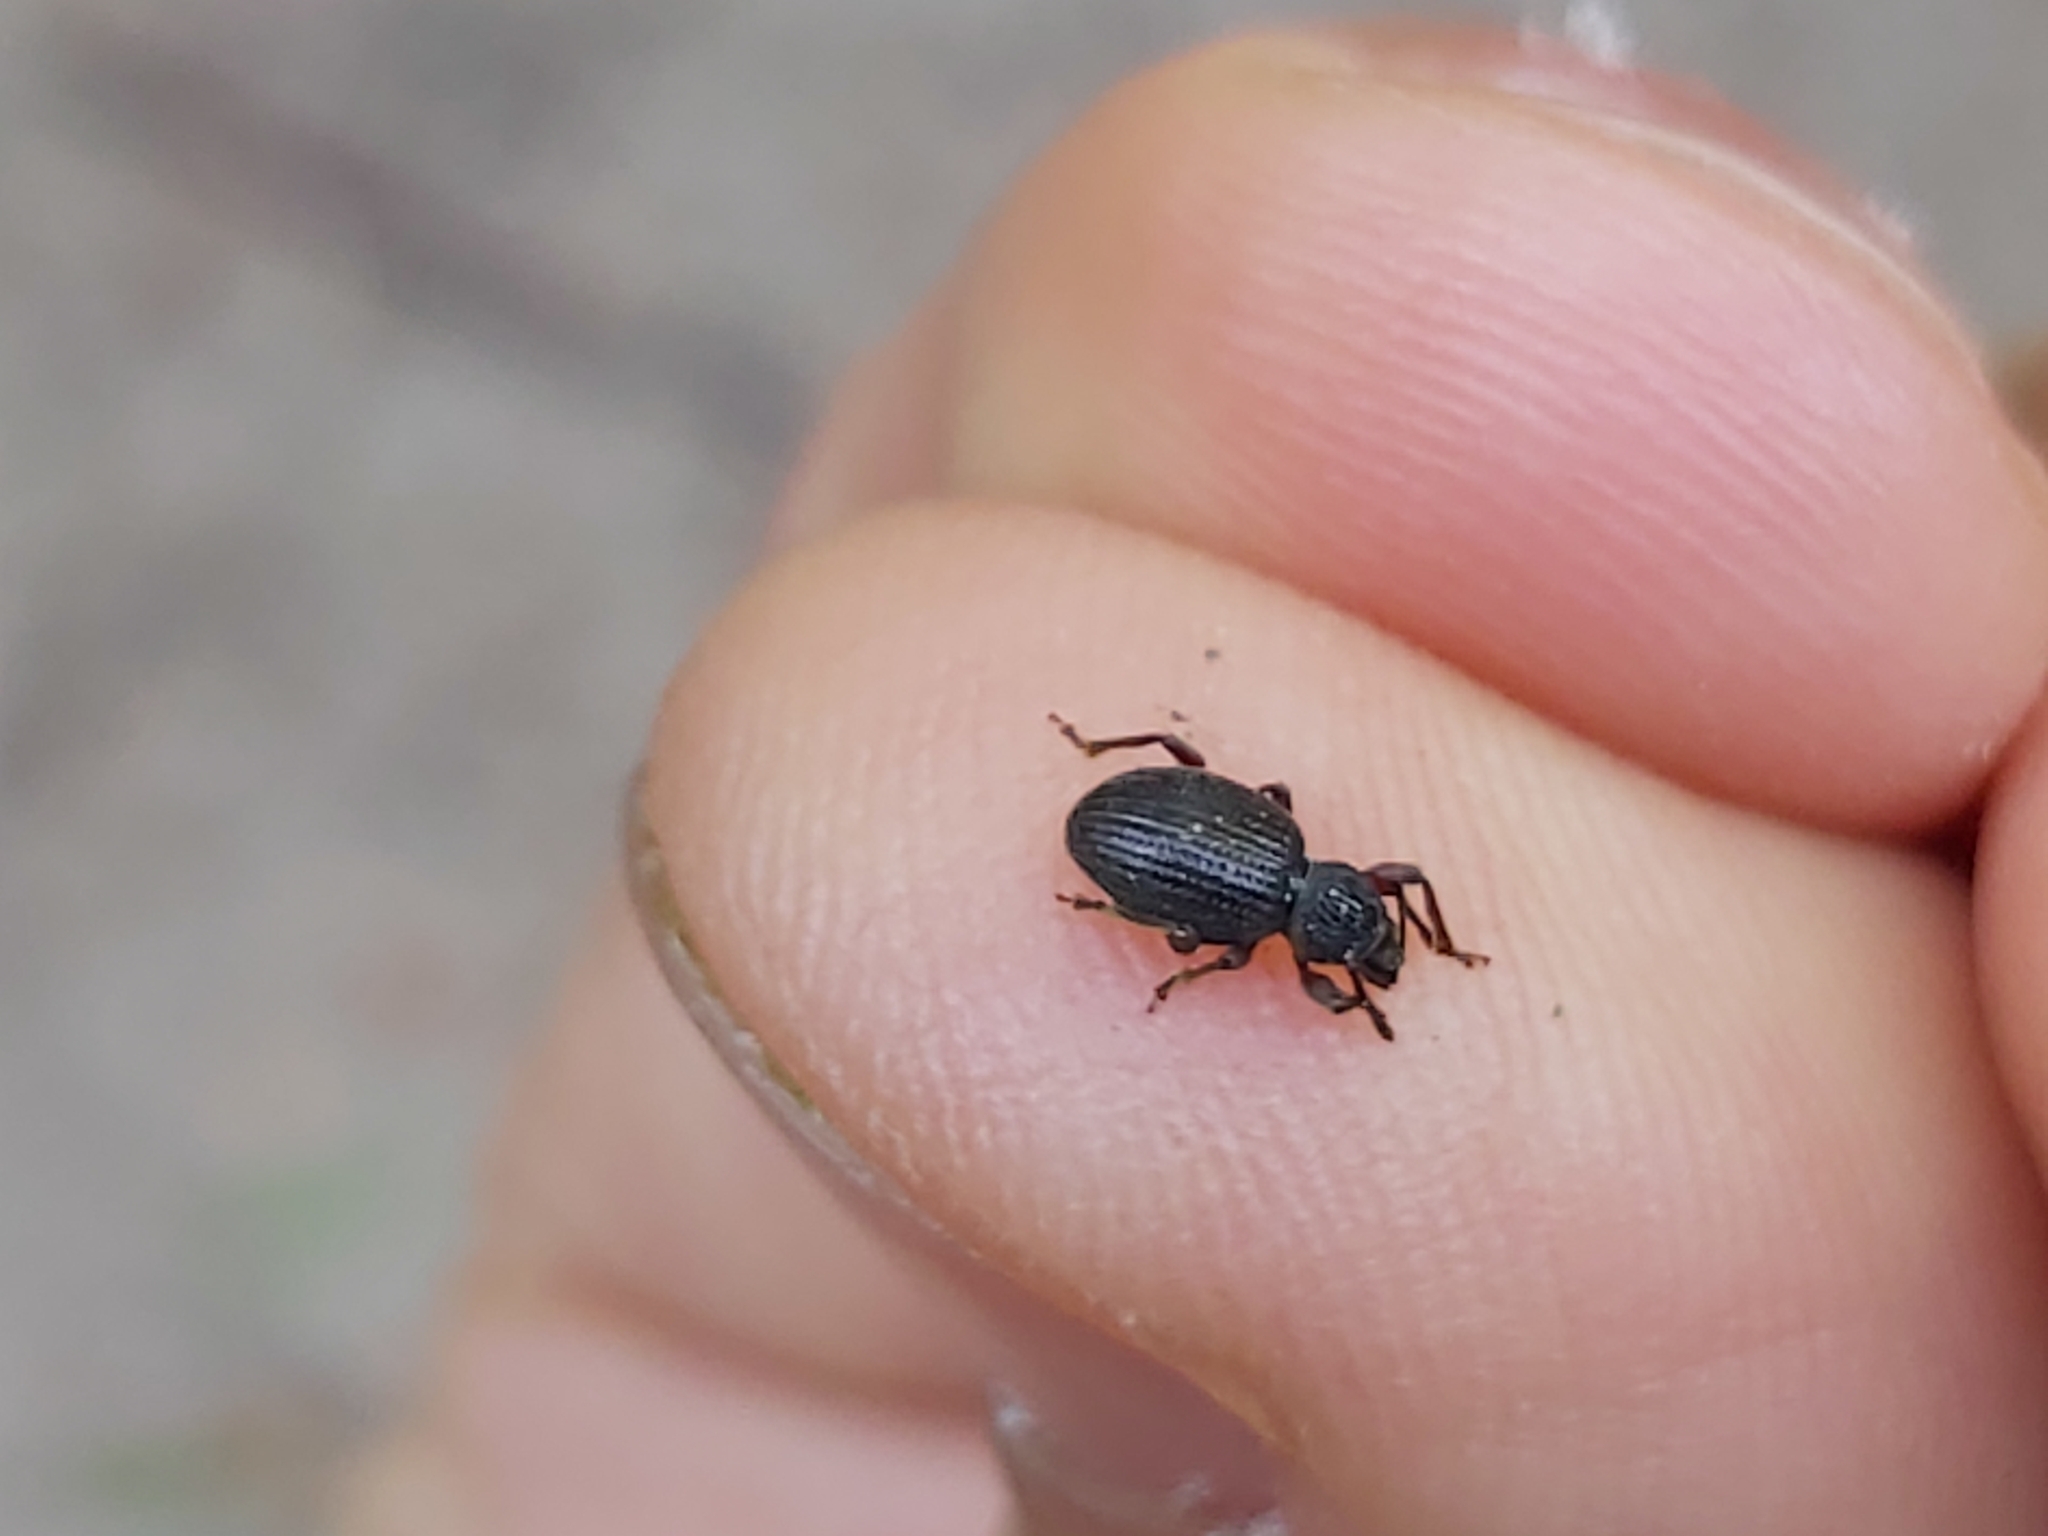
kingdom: Animalia
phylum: Arthropoda
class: Insecta
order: Coleoptera
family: Curculionidae
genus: Otiorhynchus
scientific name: Otiorhynchus ovatus
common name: Strawberry root weevil
